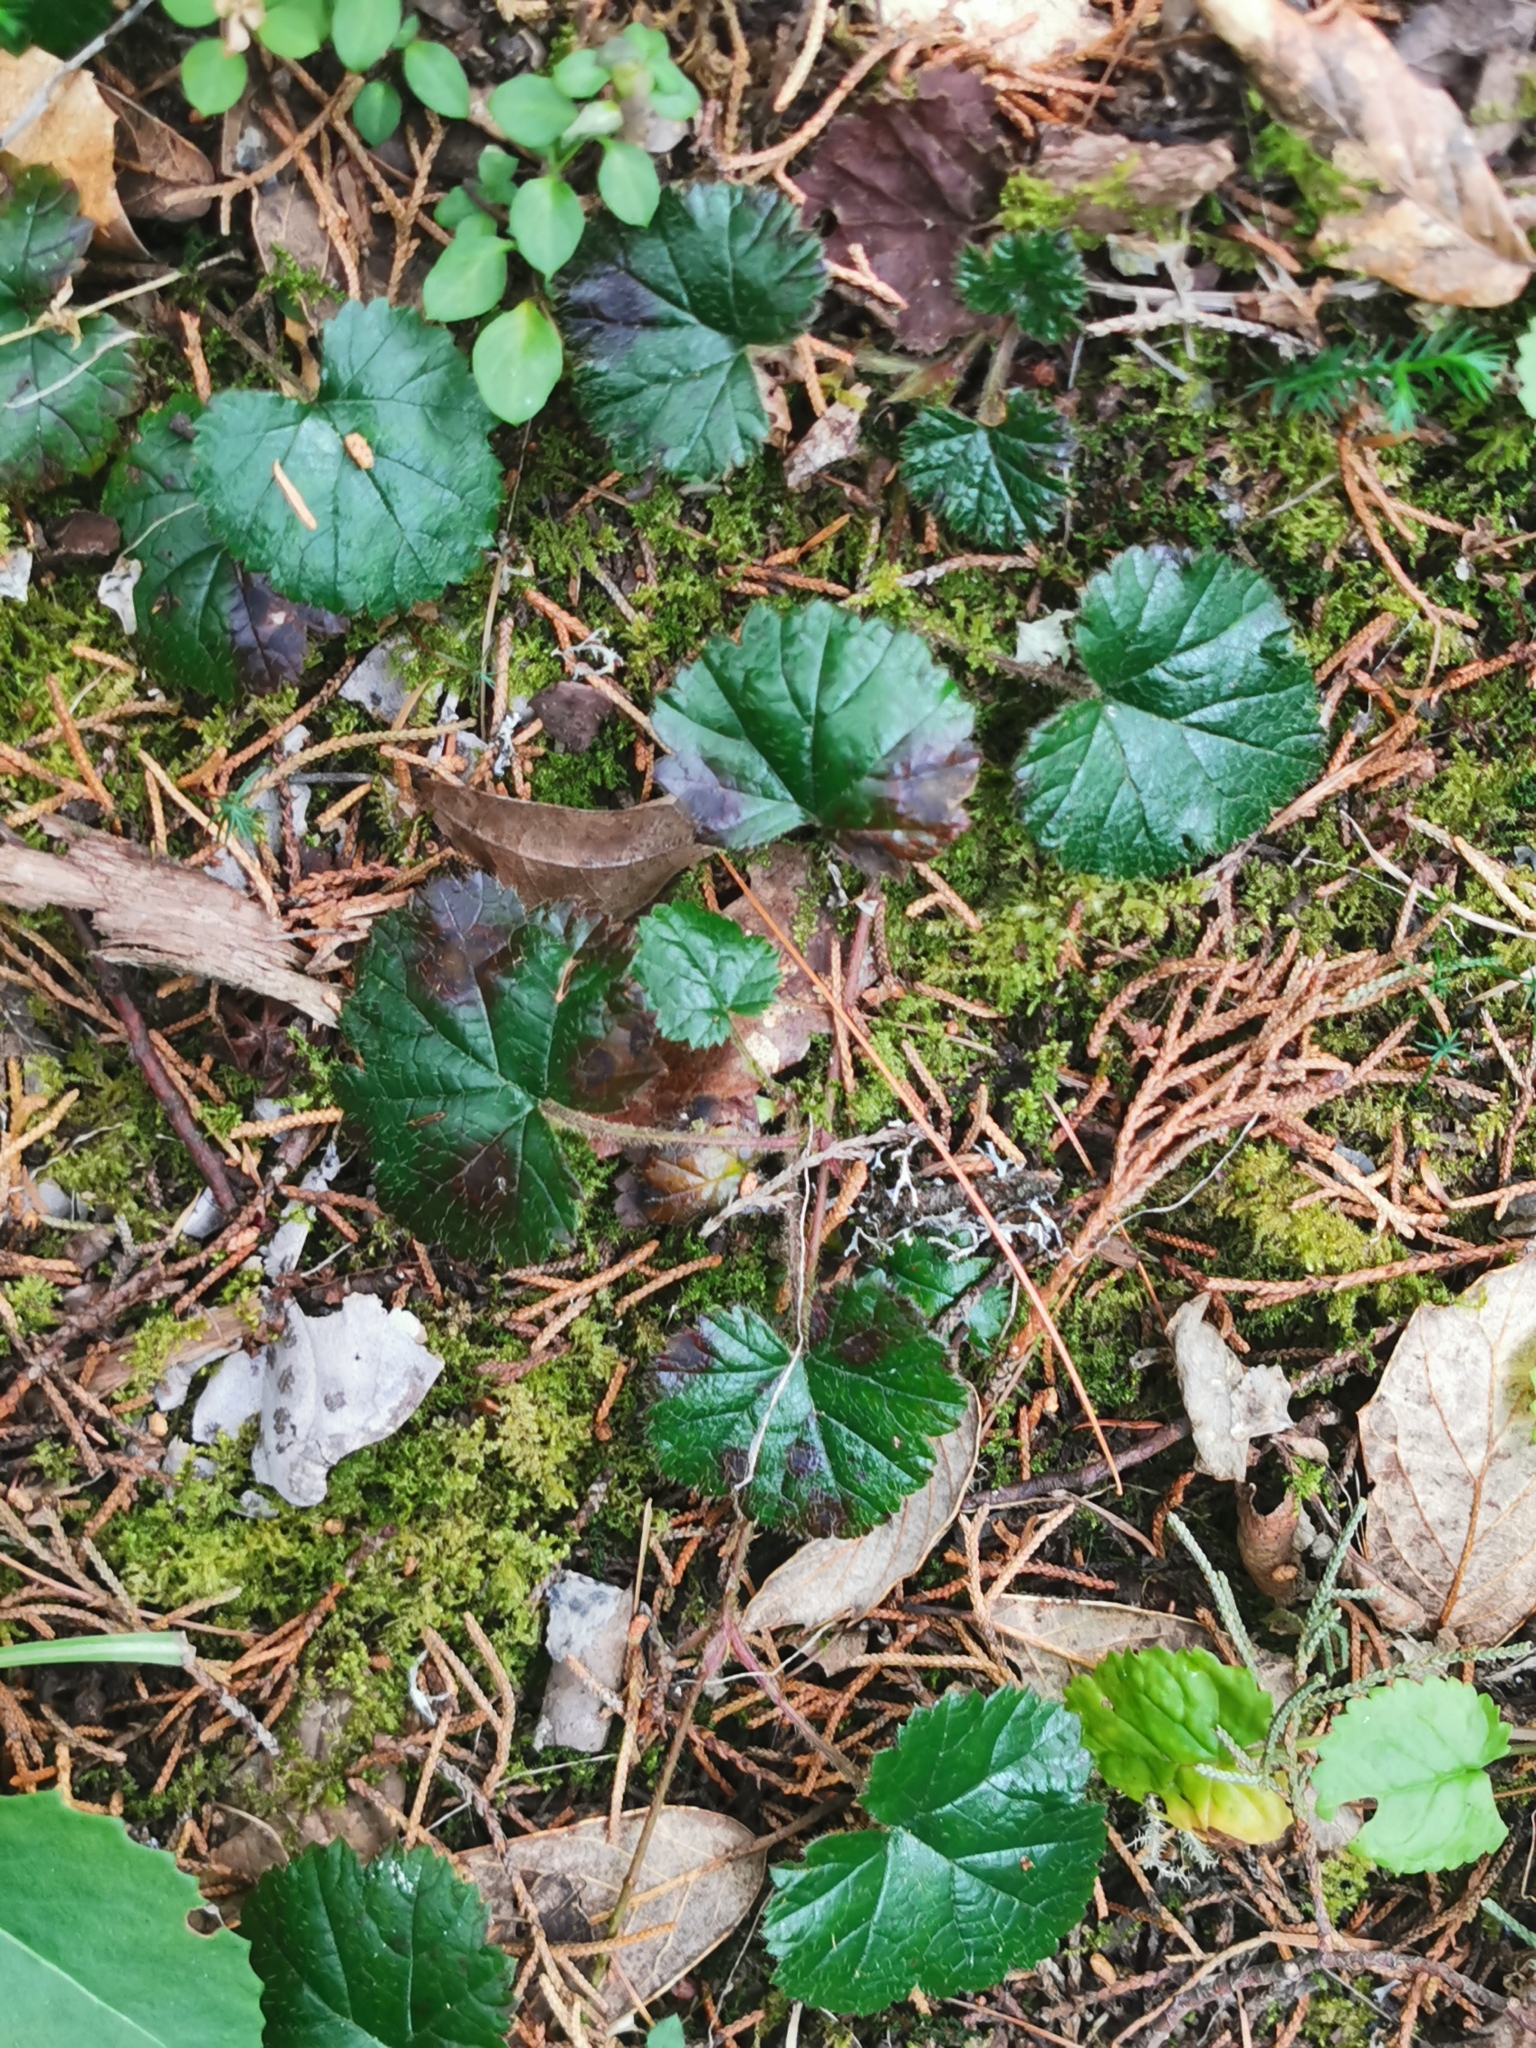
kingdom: Plantae
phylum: Tracheophyta
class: Magnoliopsida
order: Rosales
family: Rosaceae
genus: Rubus
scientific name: Rubus pumilus
